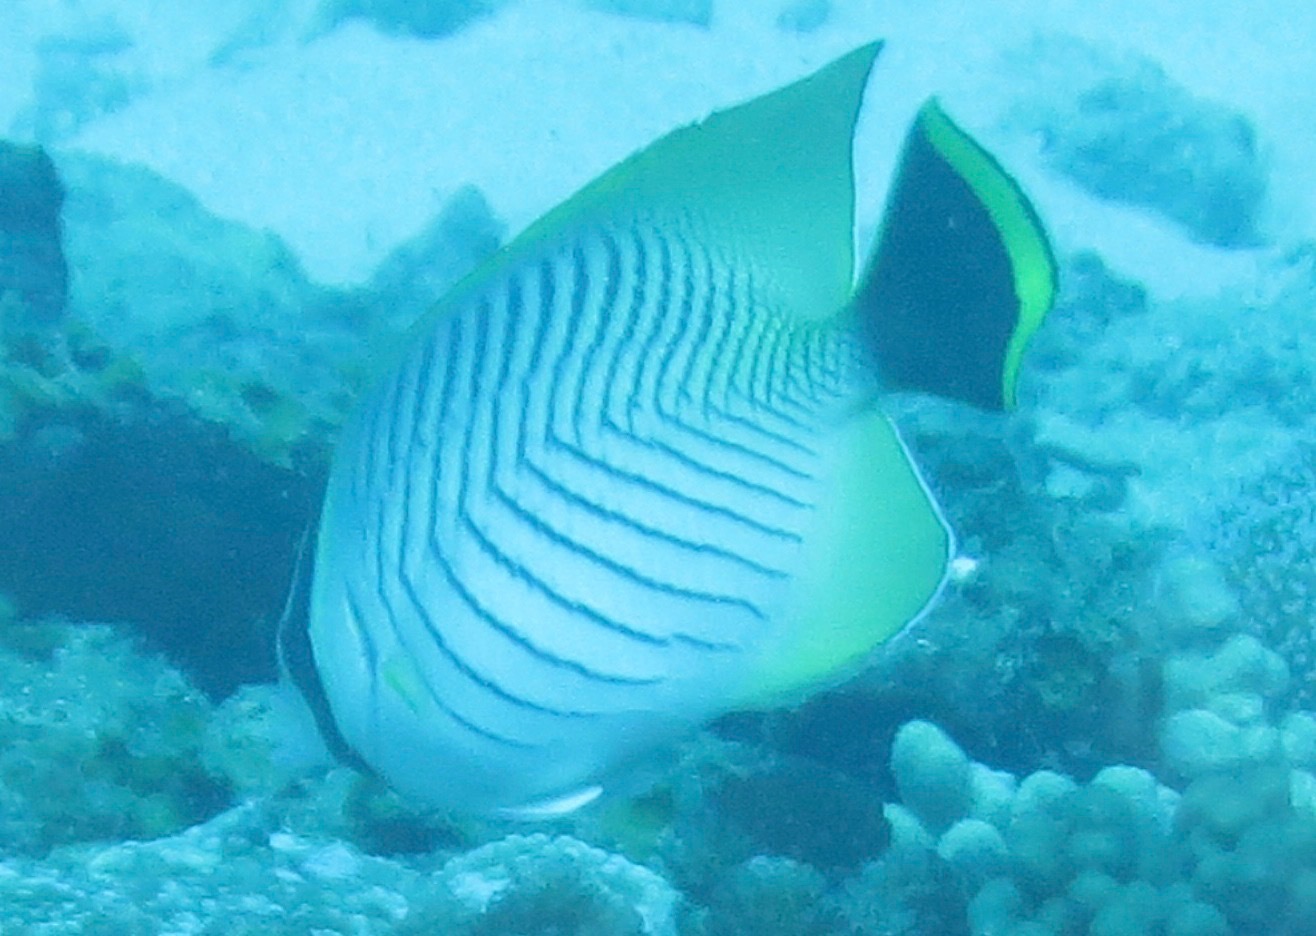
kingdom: Animalia
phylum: Chordata
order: Perciformes
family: Chaetodontidae
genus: Chaetodon
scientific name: Chaetodon trifascialis
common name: Chevroned butterflyfish
